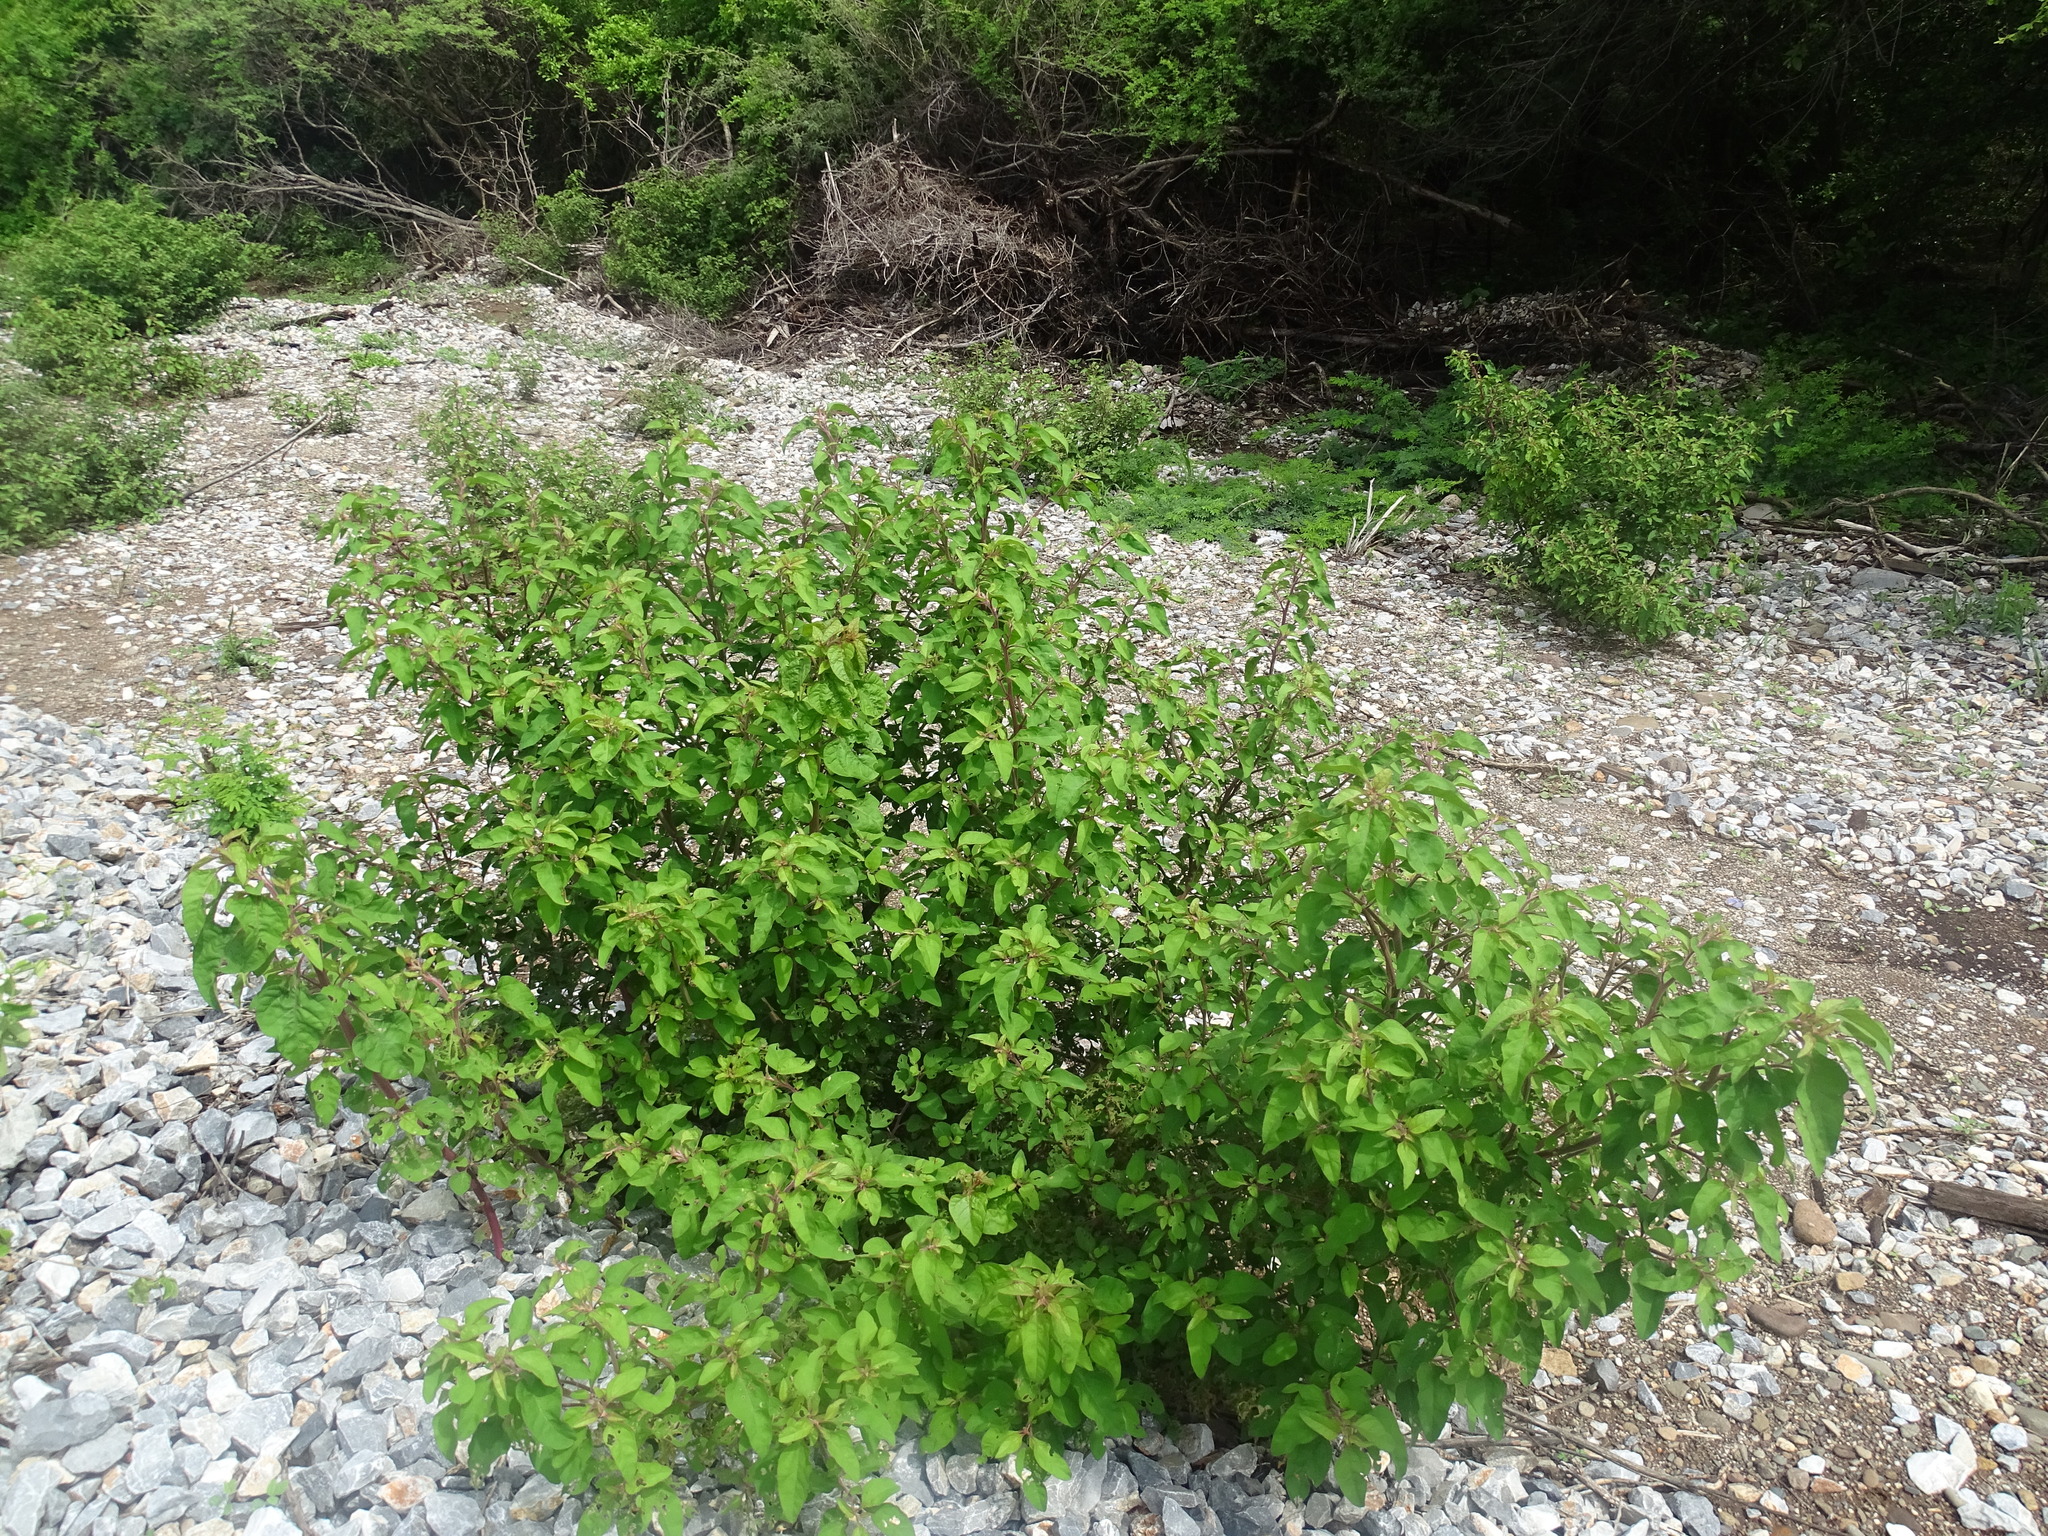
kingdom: Plantae
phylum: Tracheophyta
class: Magnoliopsida
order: Caryophyllales
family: Nyctaginaceae
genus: Salpianthus
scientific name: Salpianthus arenarius
